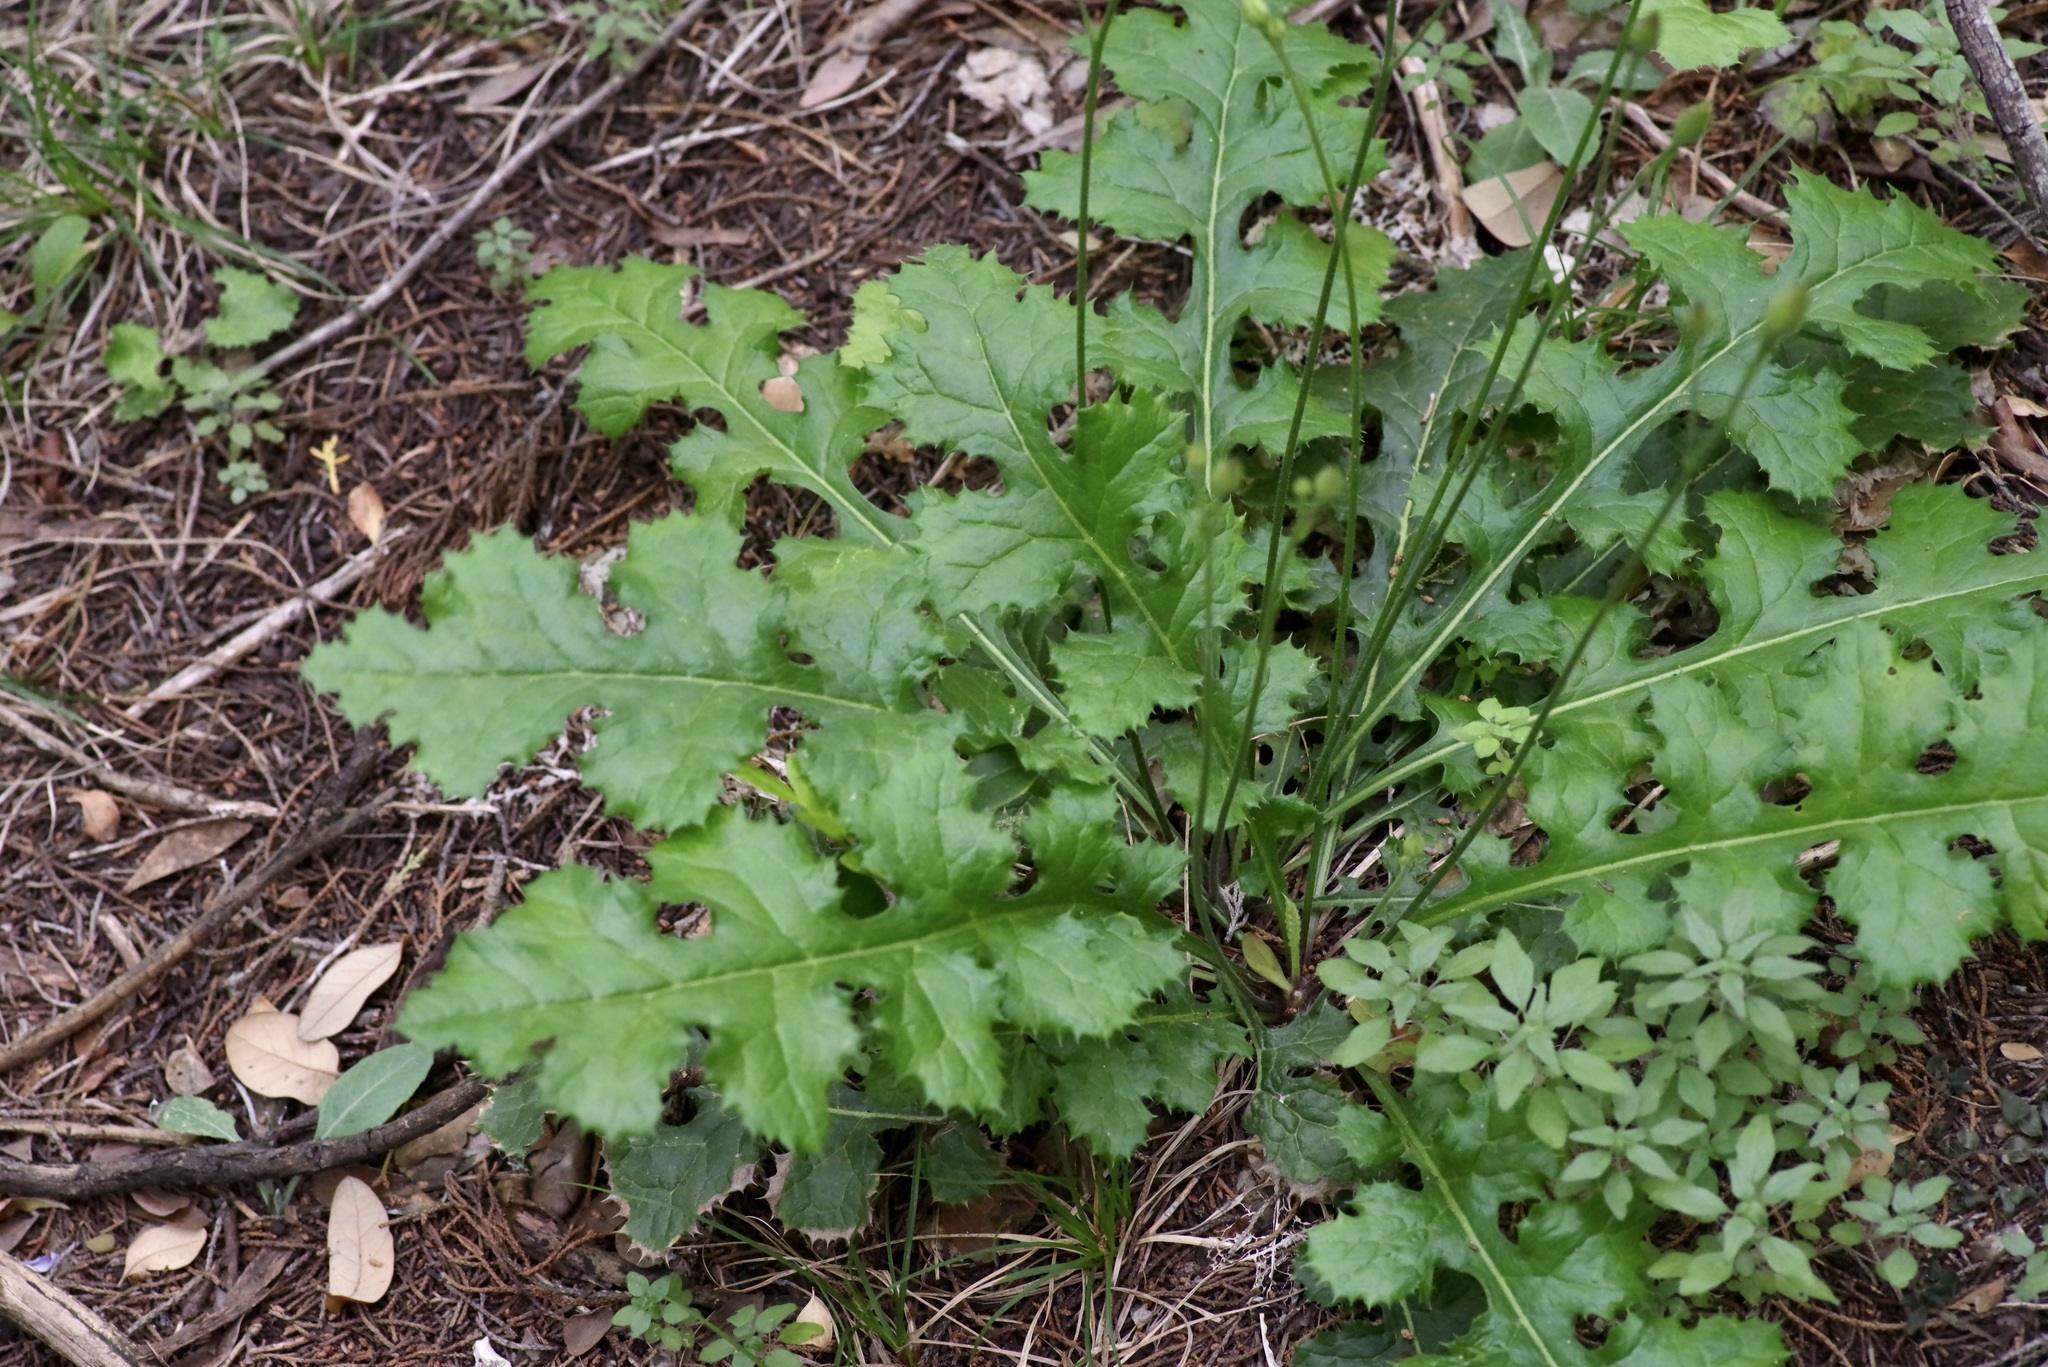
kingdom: Plantae
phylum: Tracheophyta
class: Magnoliopsida
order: Asterales
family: Asteraceae
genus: Acourtia
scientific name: Acourtia runcinata
